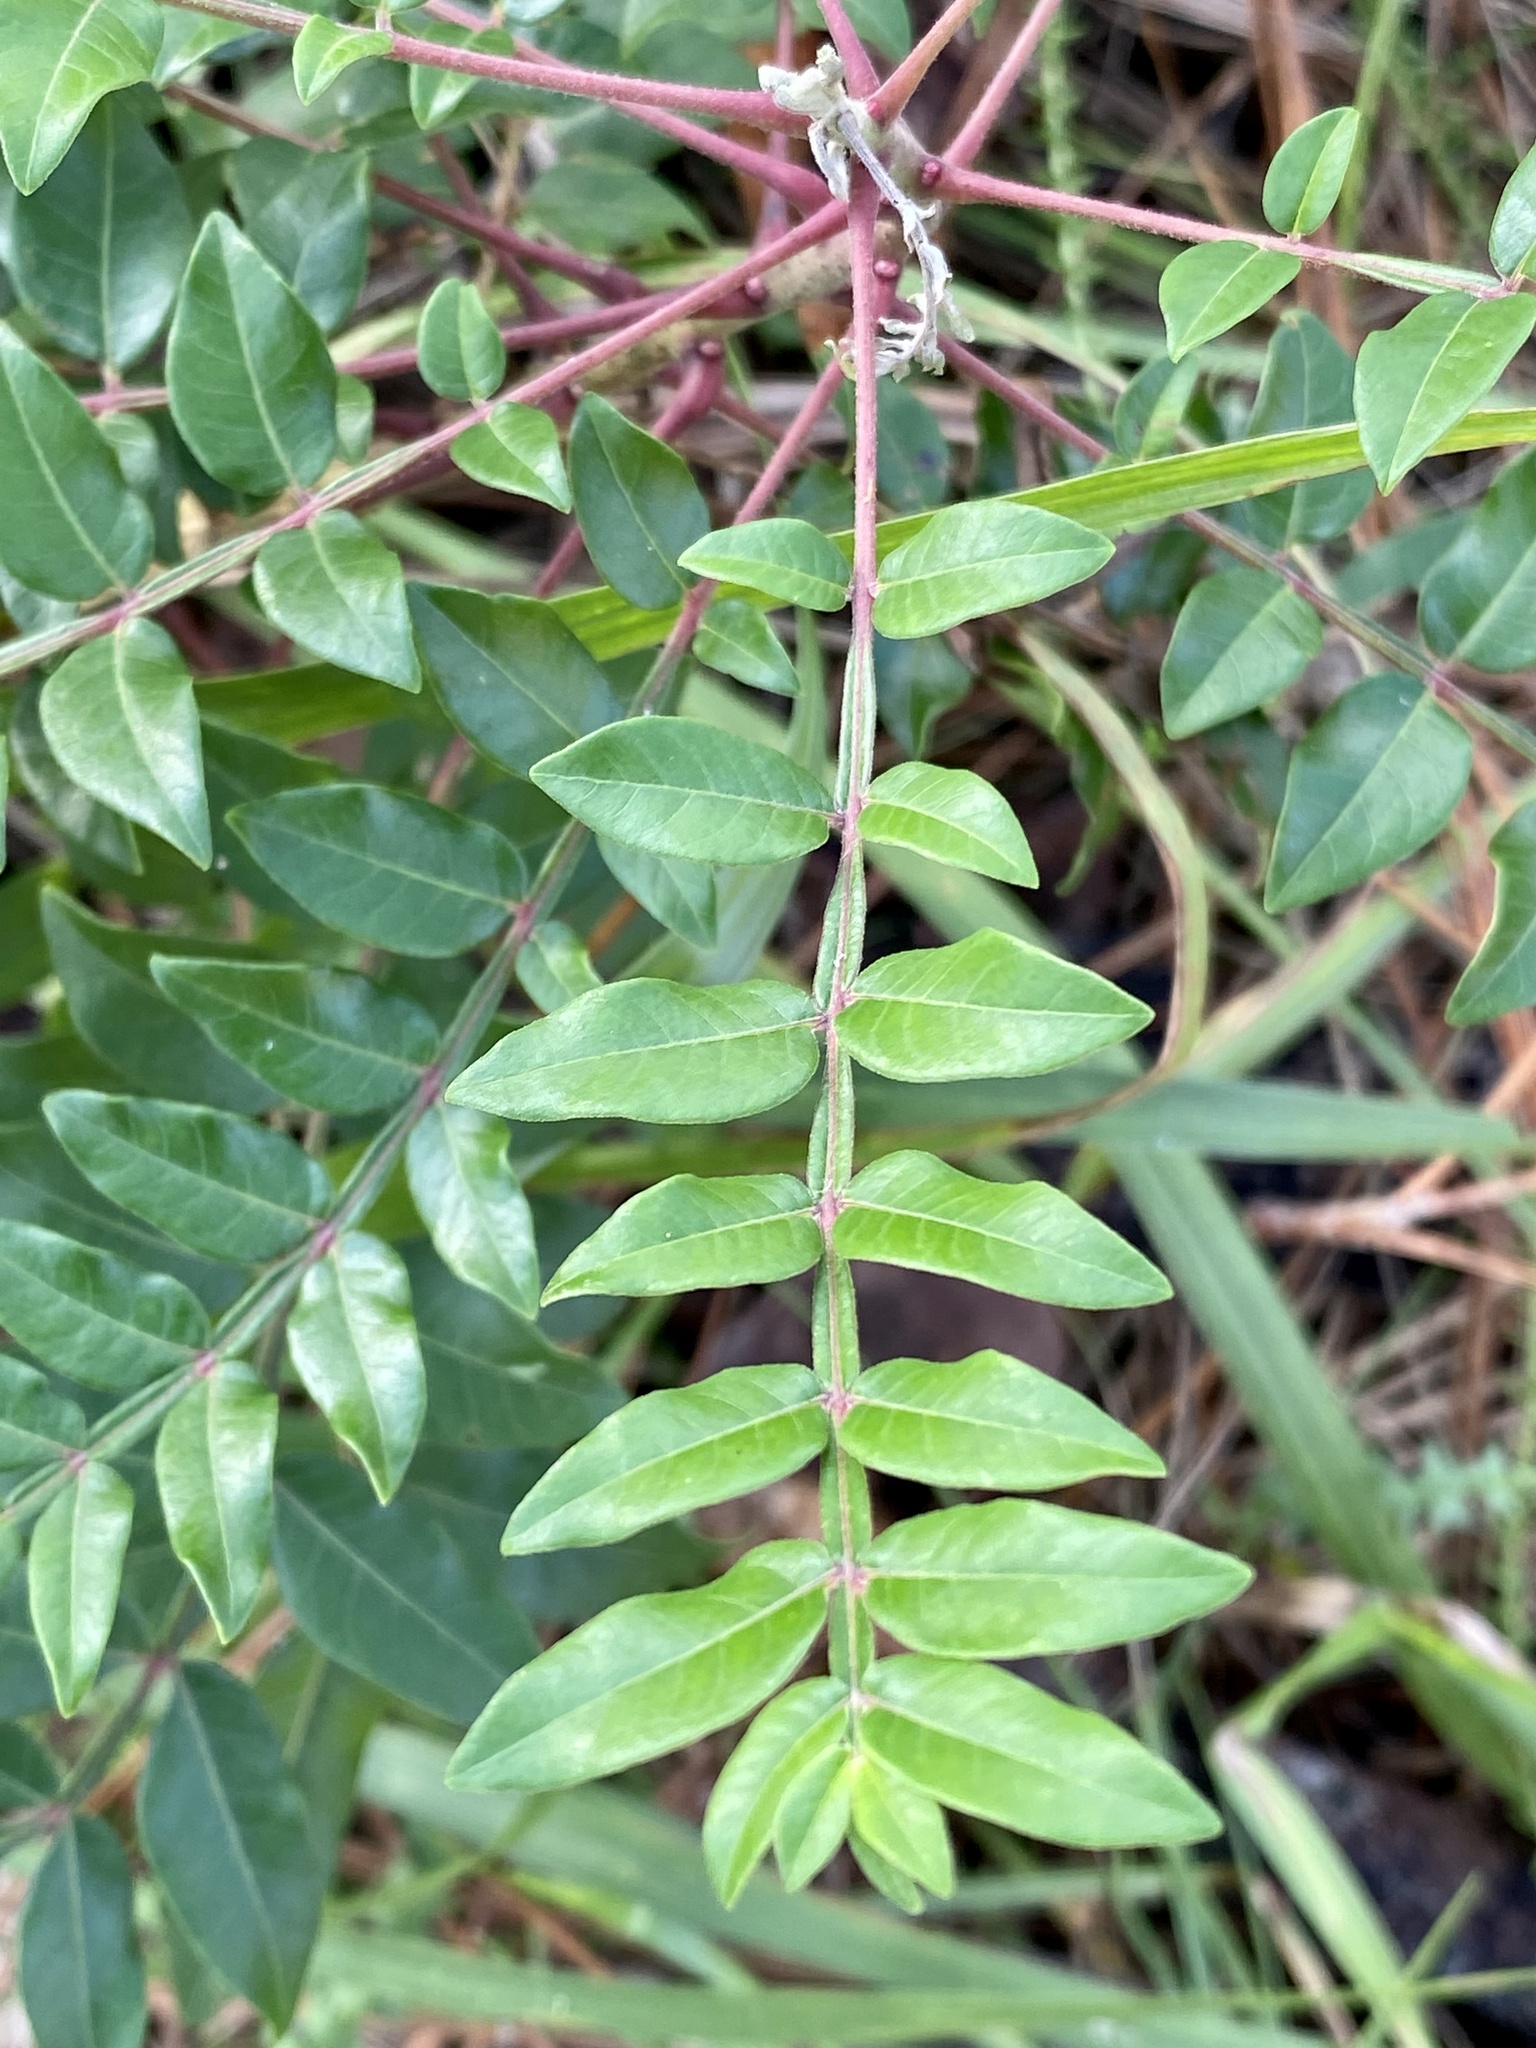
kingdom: Plantae
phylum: Tracheophyta
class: Magnoliopsida
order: Sapindales
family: Anacardiaceae
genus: Rhus
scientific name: Rhus copallina
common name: Shining sumac
